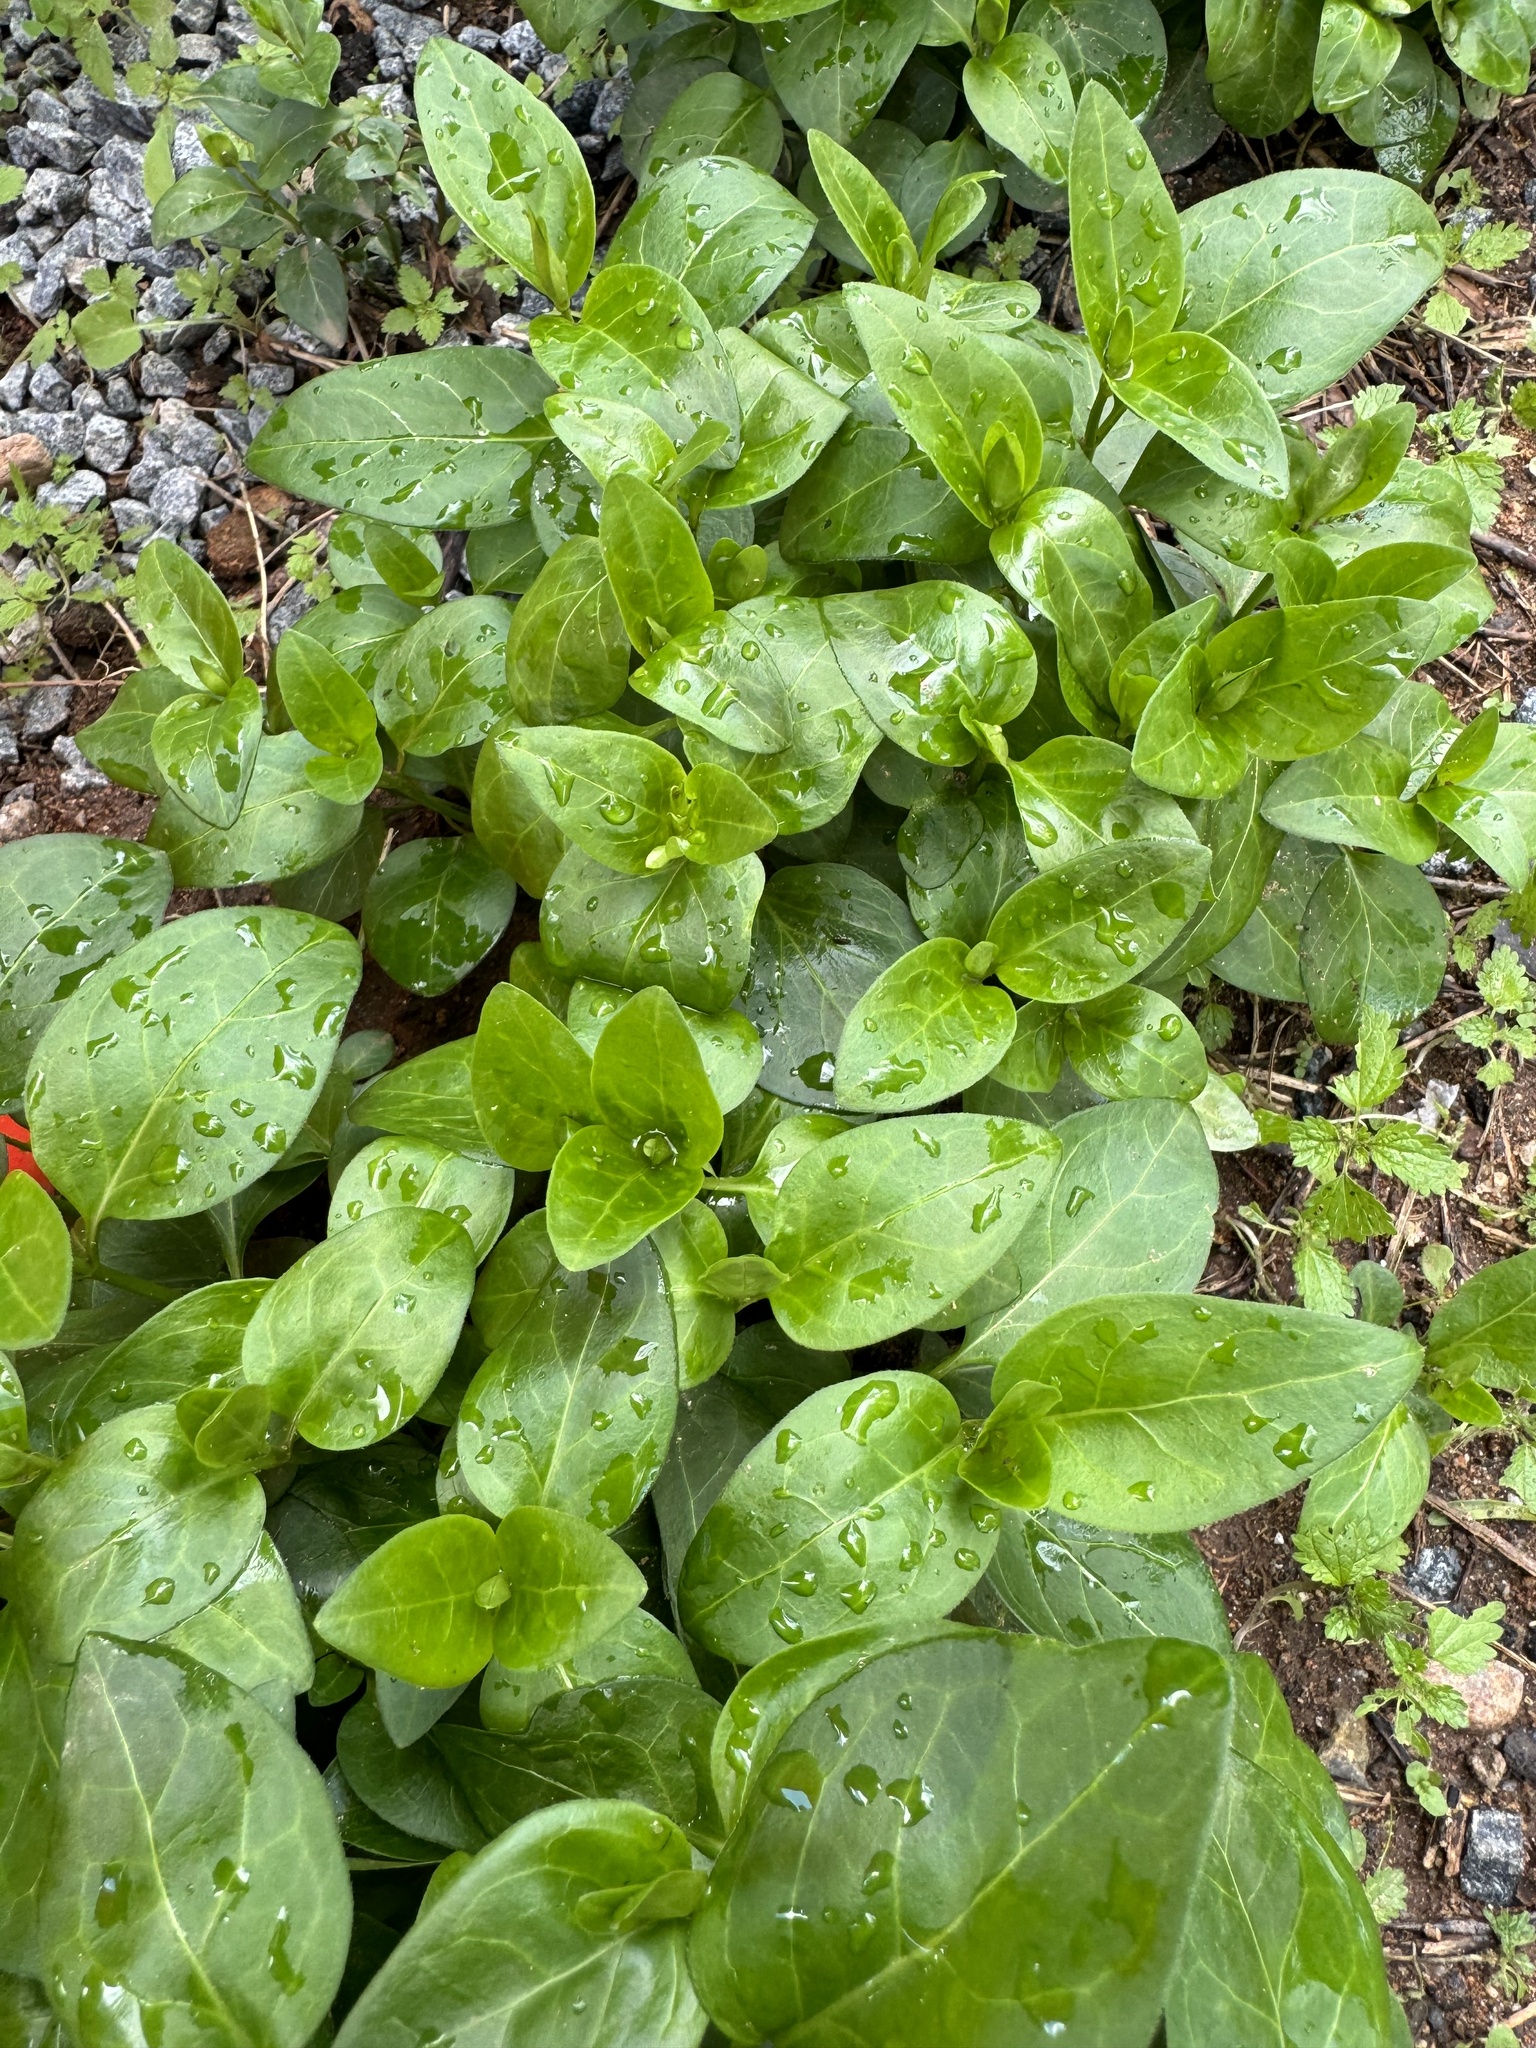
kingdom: Plantae
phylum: Tracheophyta
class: Magnoliopsida
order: Gentianales
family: Apocynaceae
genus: Vinca
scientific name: Vinca major
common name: Greater periwinkle
